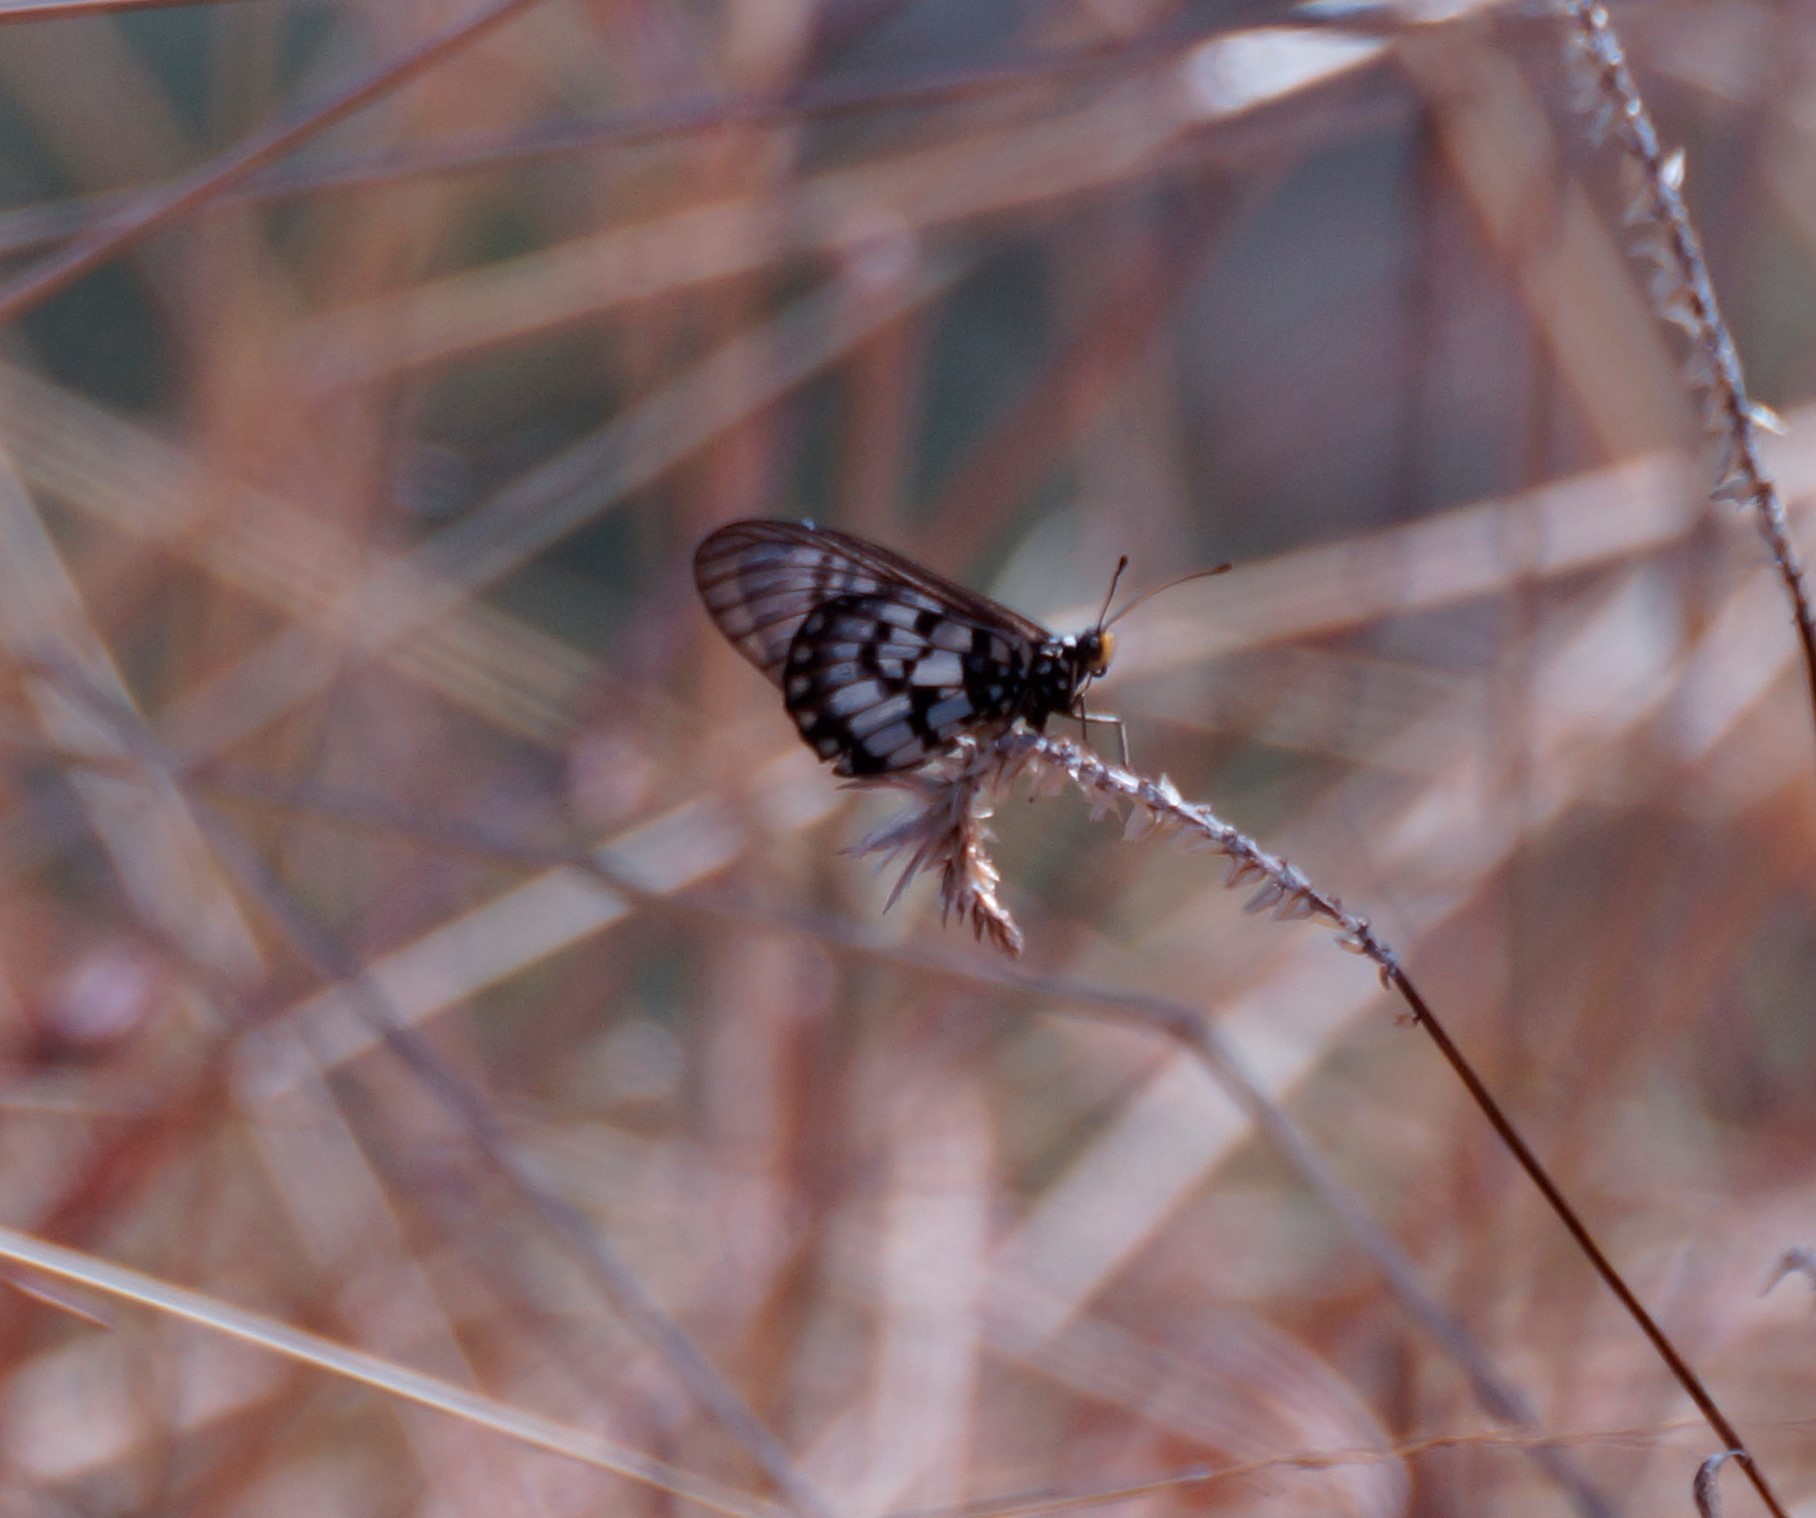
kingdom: Animalia
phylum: Arthropoda
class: Insecta
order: Lepidoptera
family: Nymphalidae
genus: Acraea
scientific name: Acraea andromacha
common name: Glasswing
